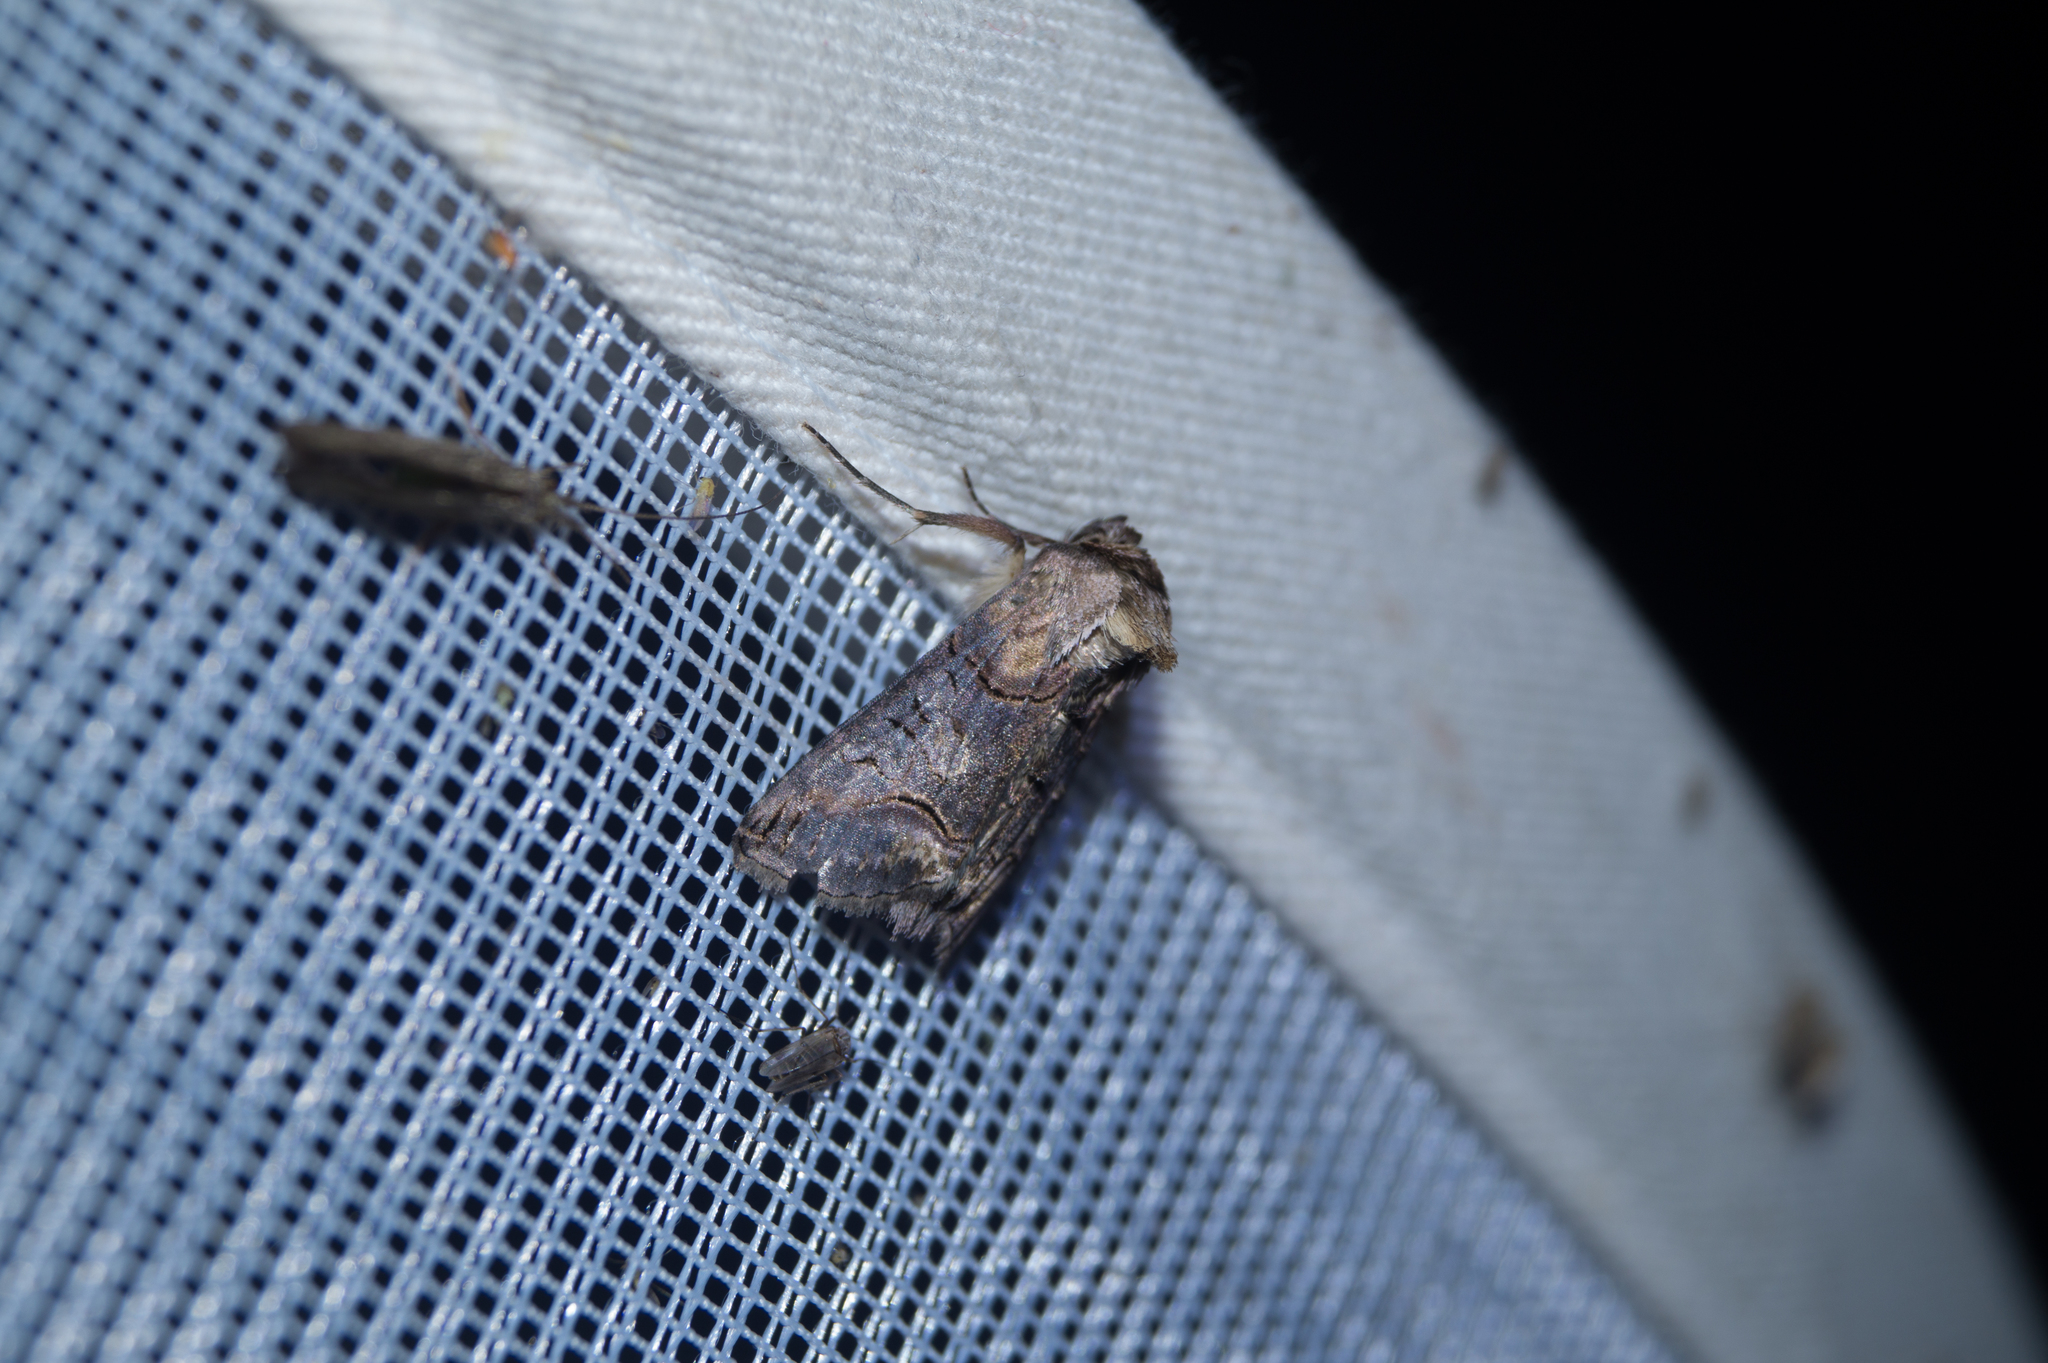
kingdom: Animalia
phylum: Arthropoda
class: Insecta
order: Lepidoptera
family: Noctuidae
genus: Abrostola
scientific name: Abrostola triplasia
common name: Dark spectacle
